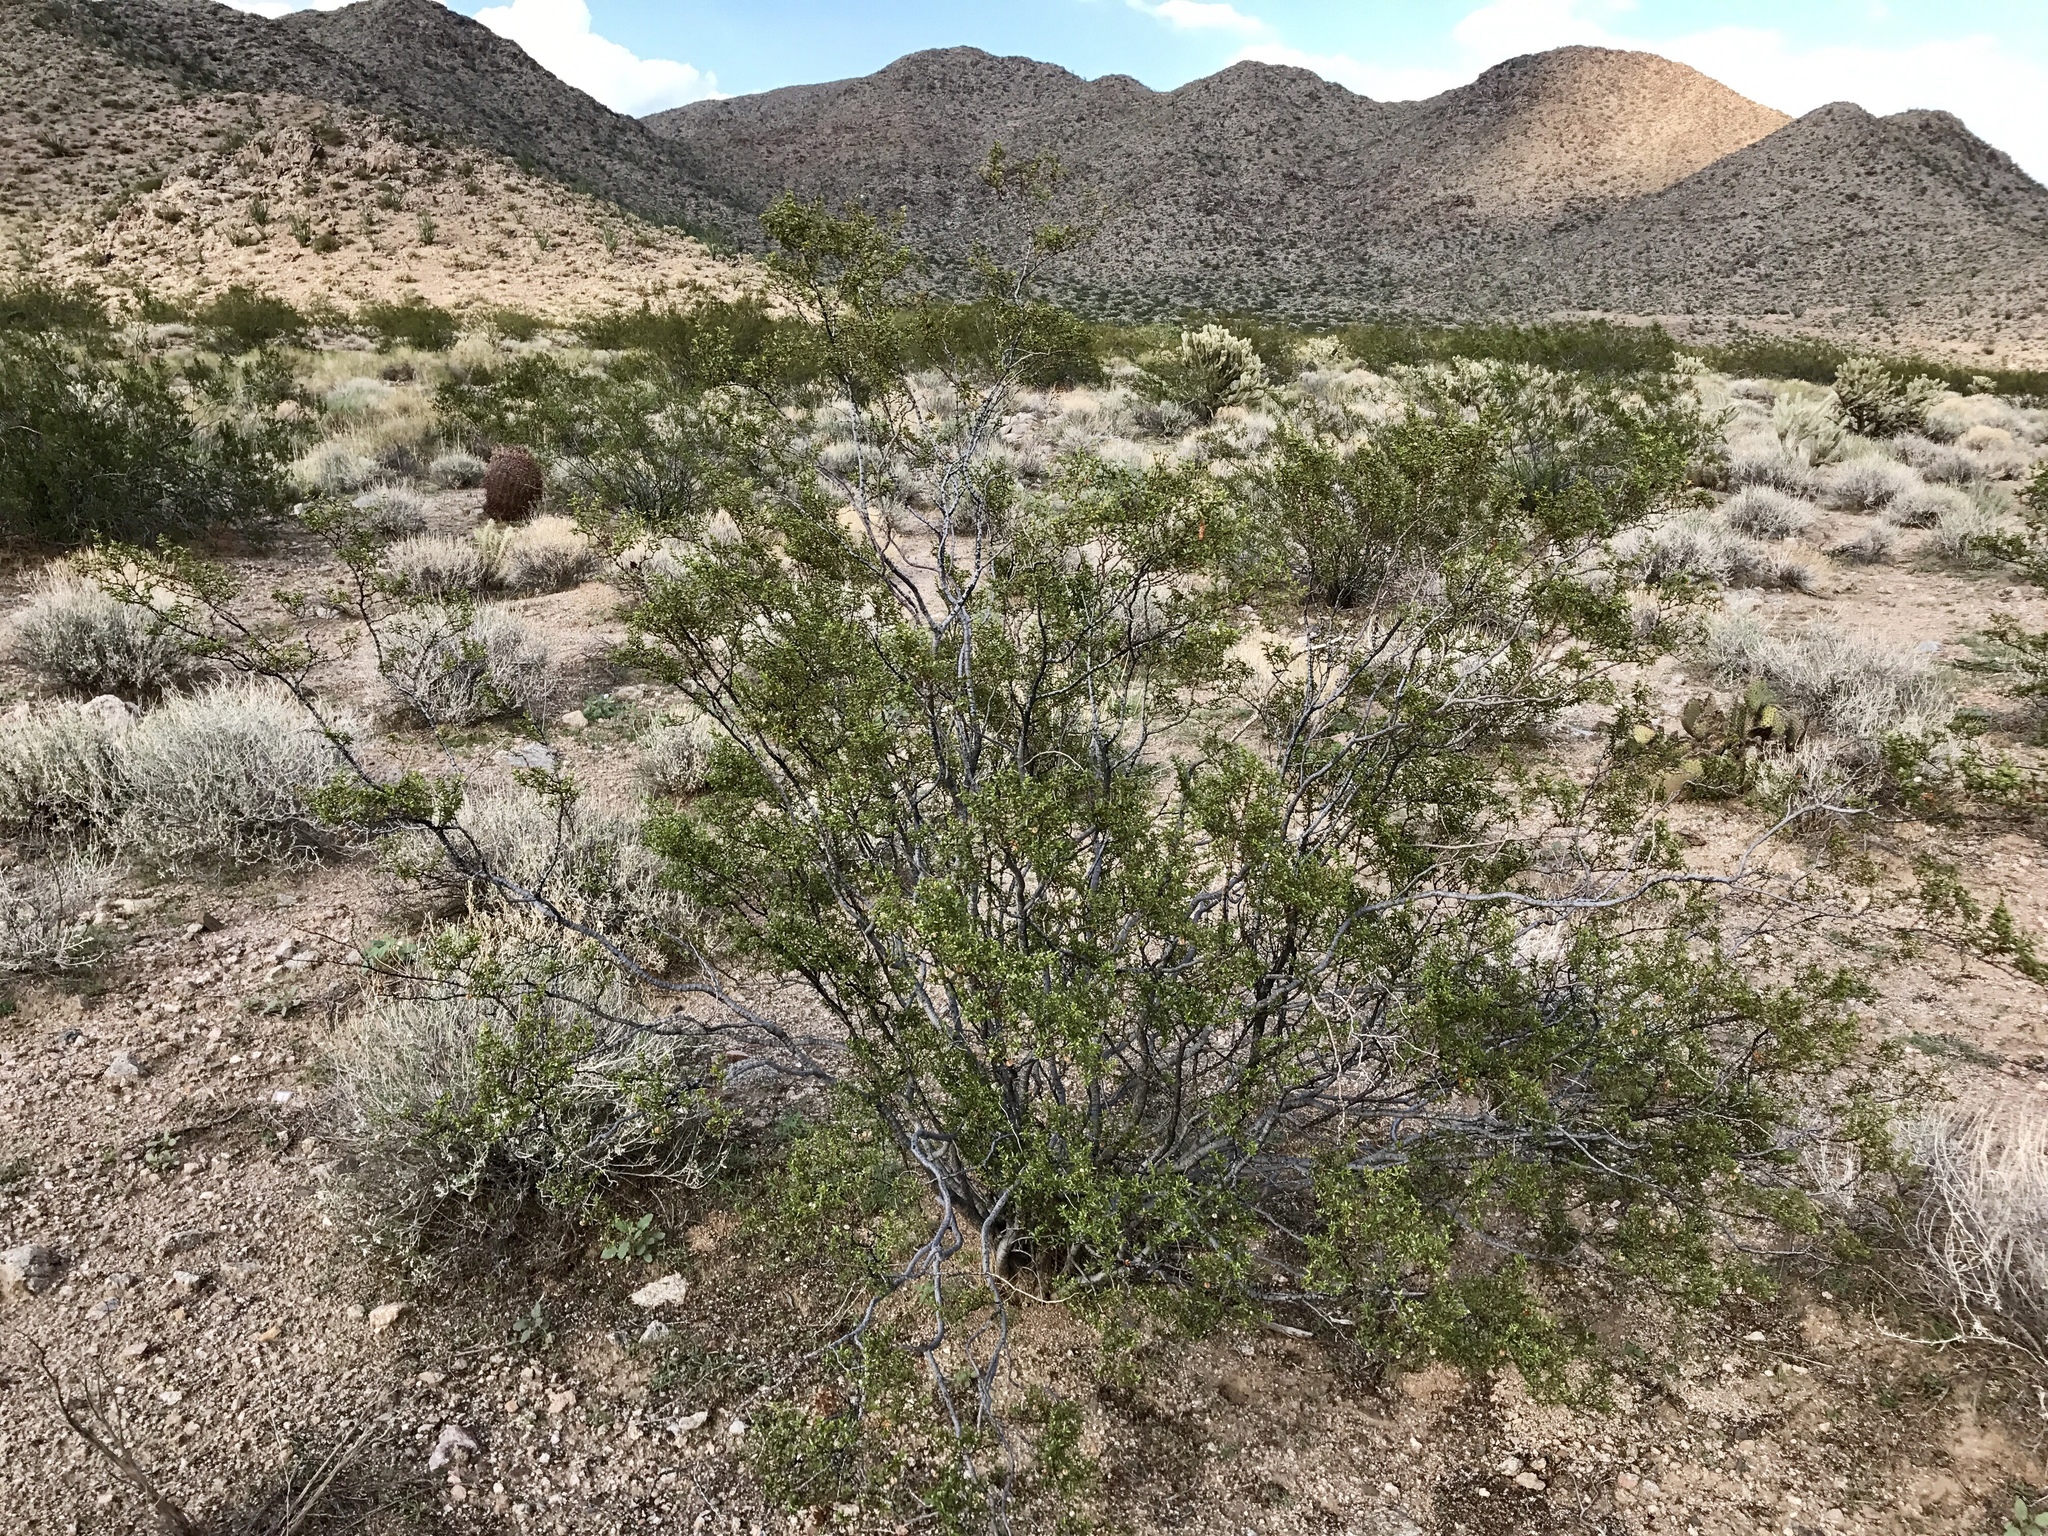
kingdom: Plantae
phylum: Tracheophyta
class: Magnoliopsida
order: Zygophyllales
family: Zygophyllaceae
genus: Larrea
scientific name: Larrea tridentata
